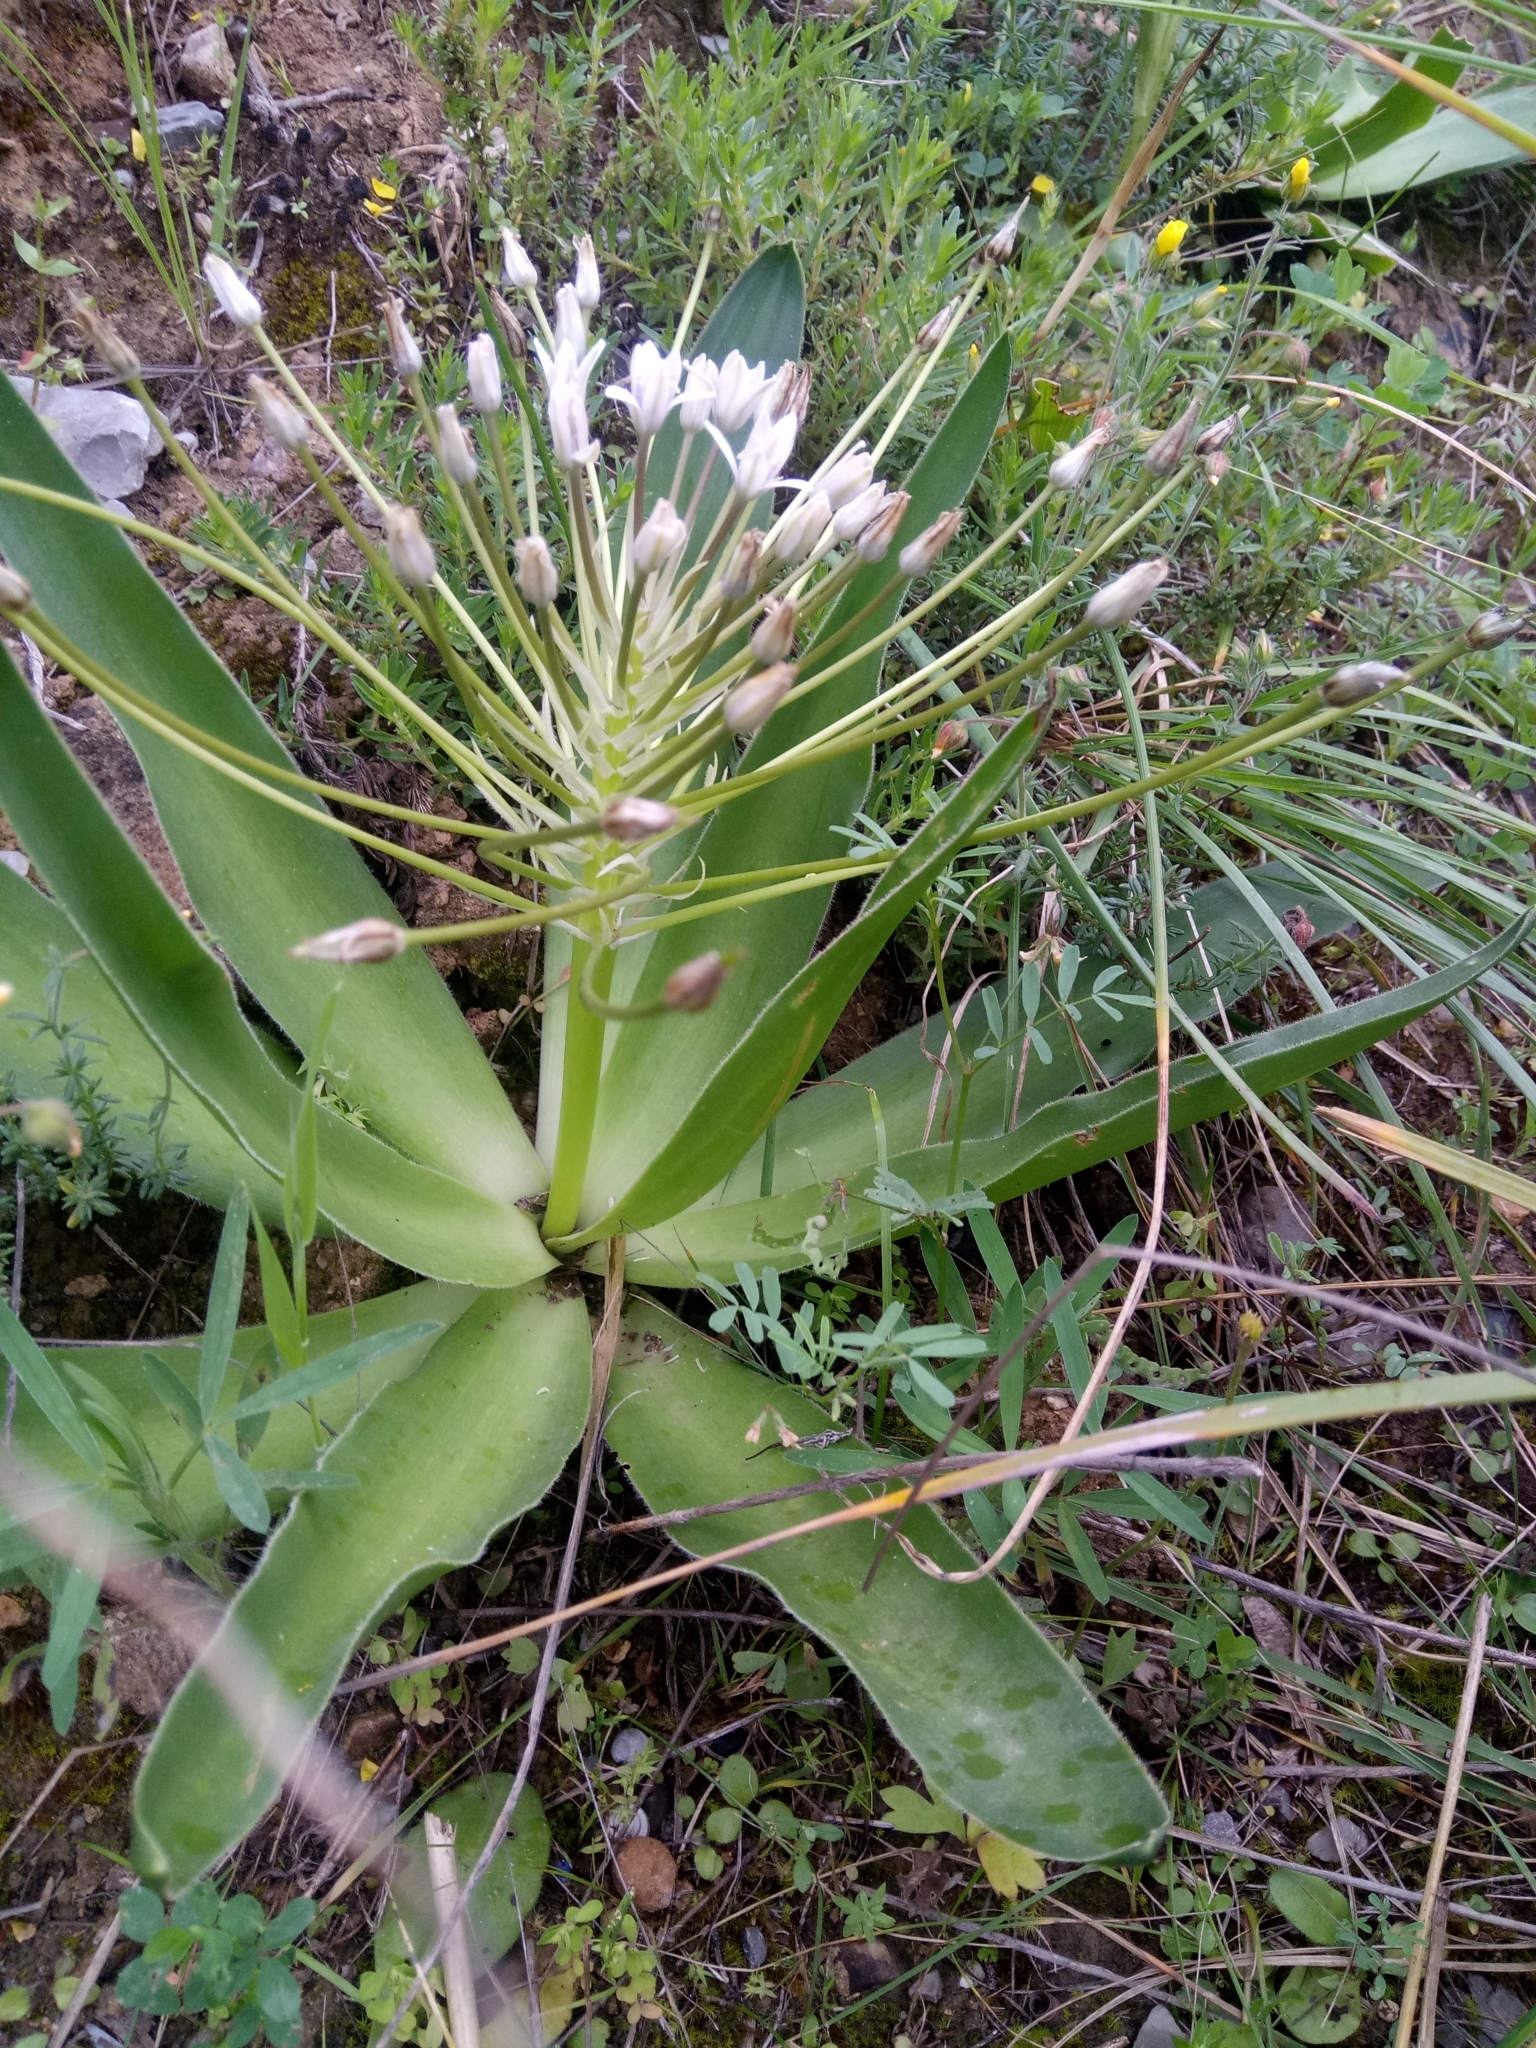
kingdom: Plantae
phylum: Tracheophyta
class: Liliopsida
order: Asparagales
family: Asparagaceae
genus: Scilla
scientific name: Scilla peruviana
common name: Portuguese squill
